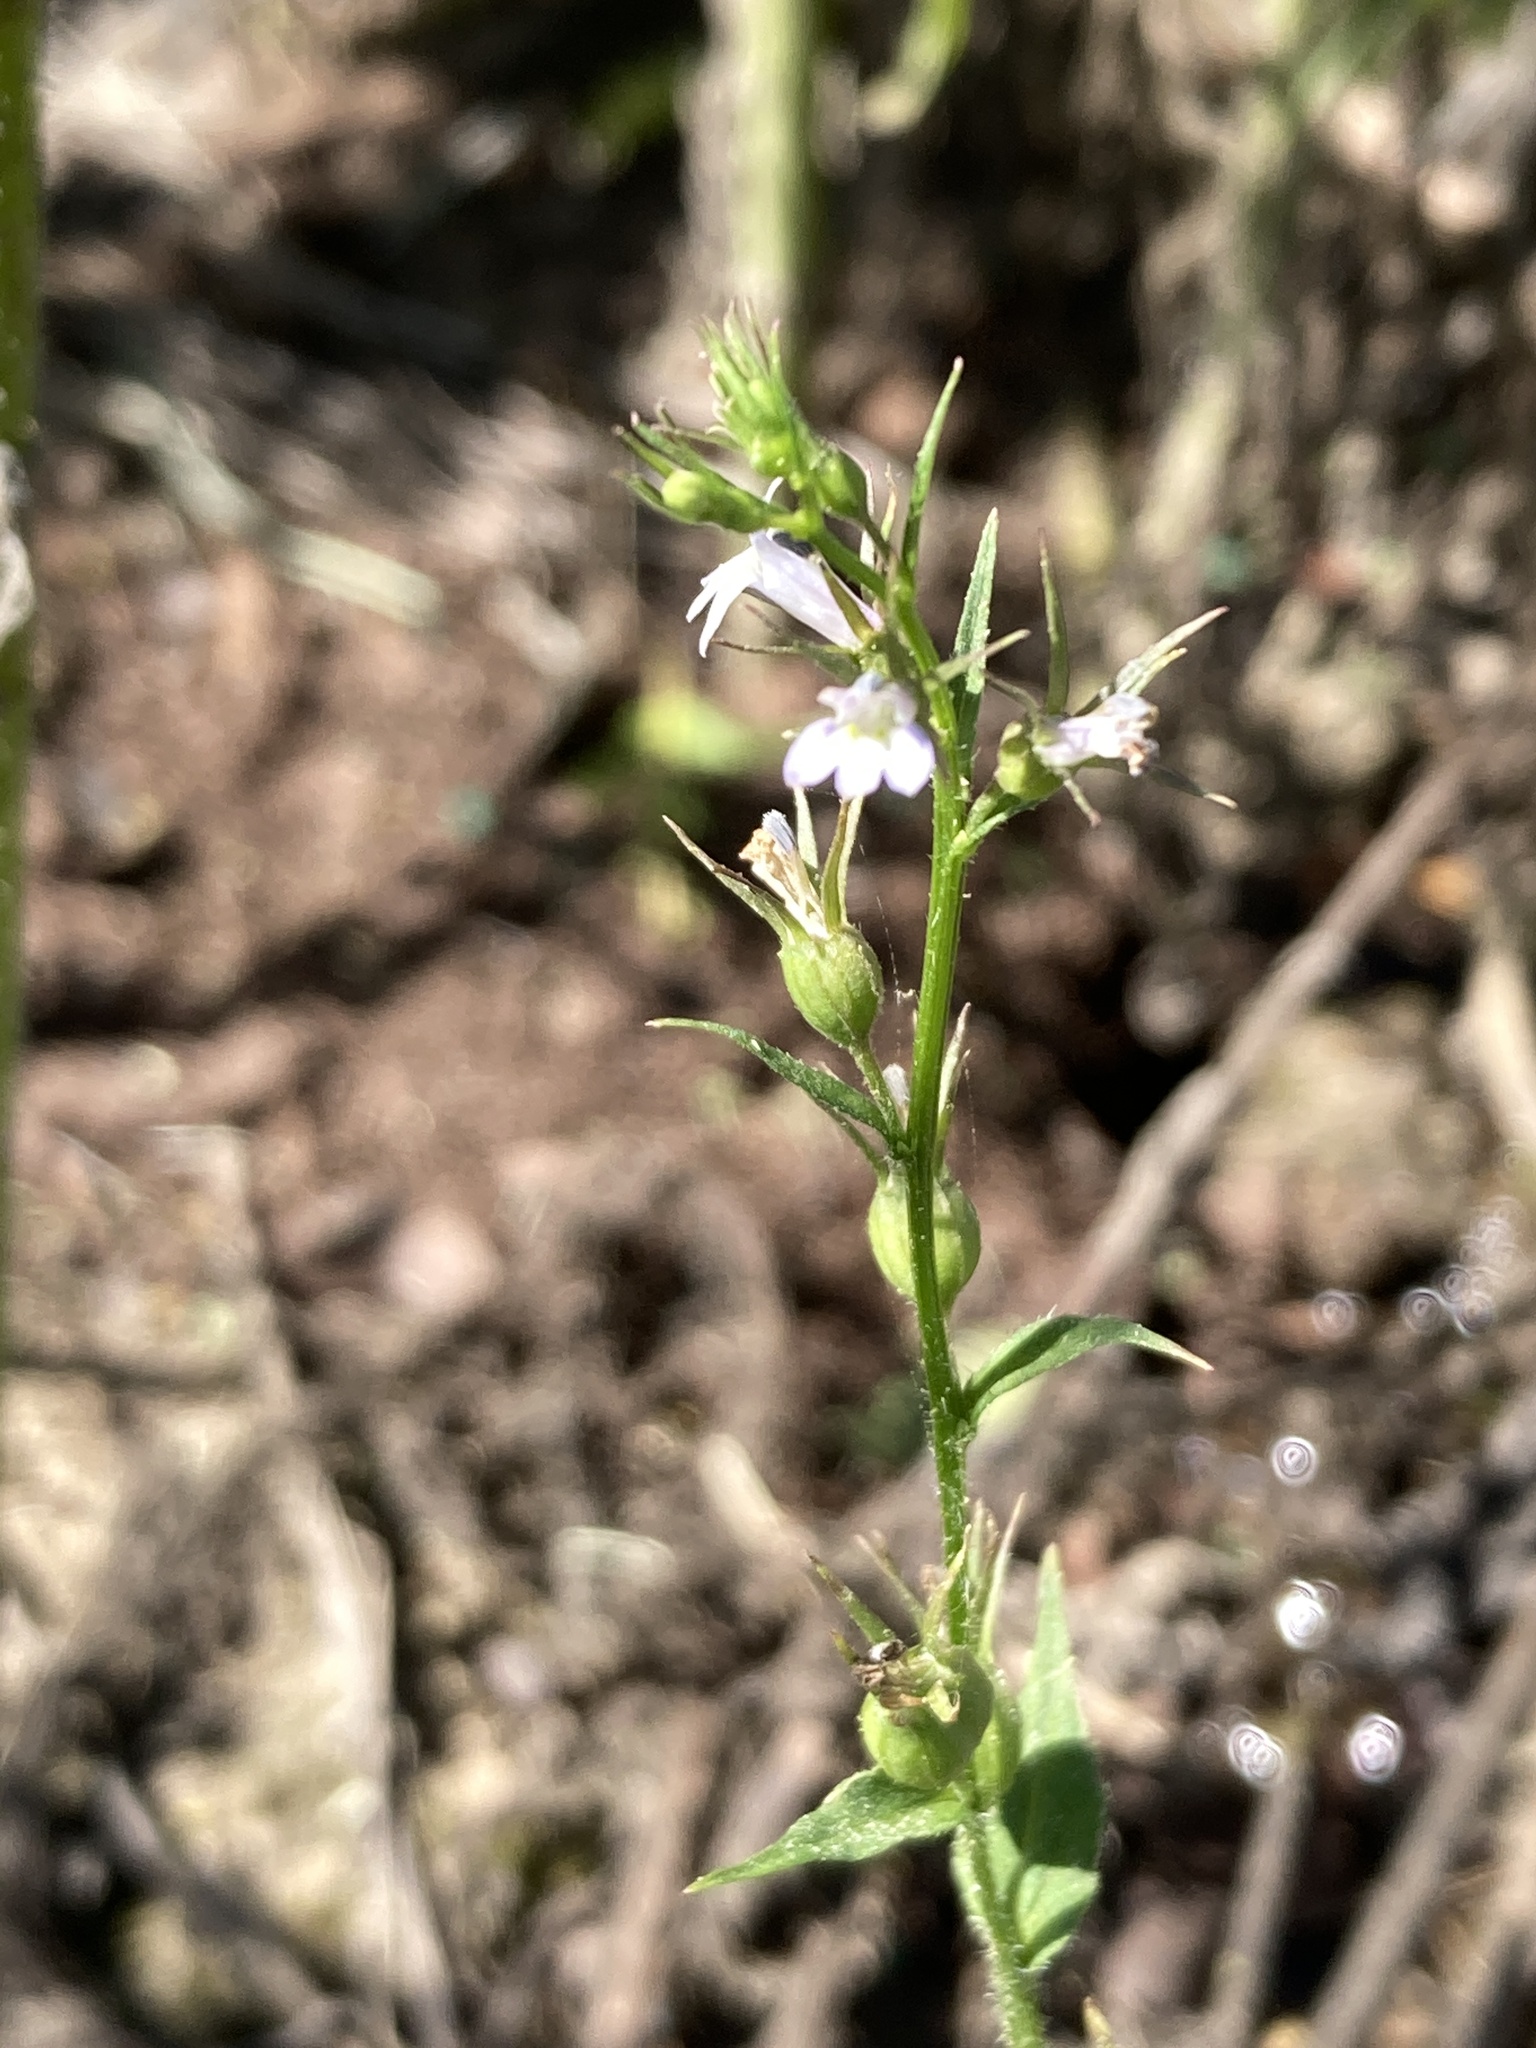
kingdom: Plantae
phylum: Tracheophyta
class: Magnoliopsida
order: Asterales
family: Campanulaceae
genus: Lobelia
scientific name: Lobelia inflata
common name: Indian tobacco
